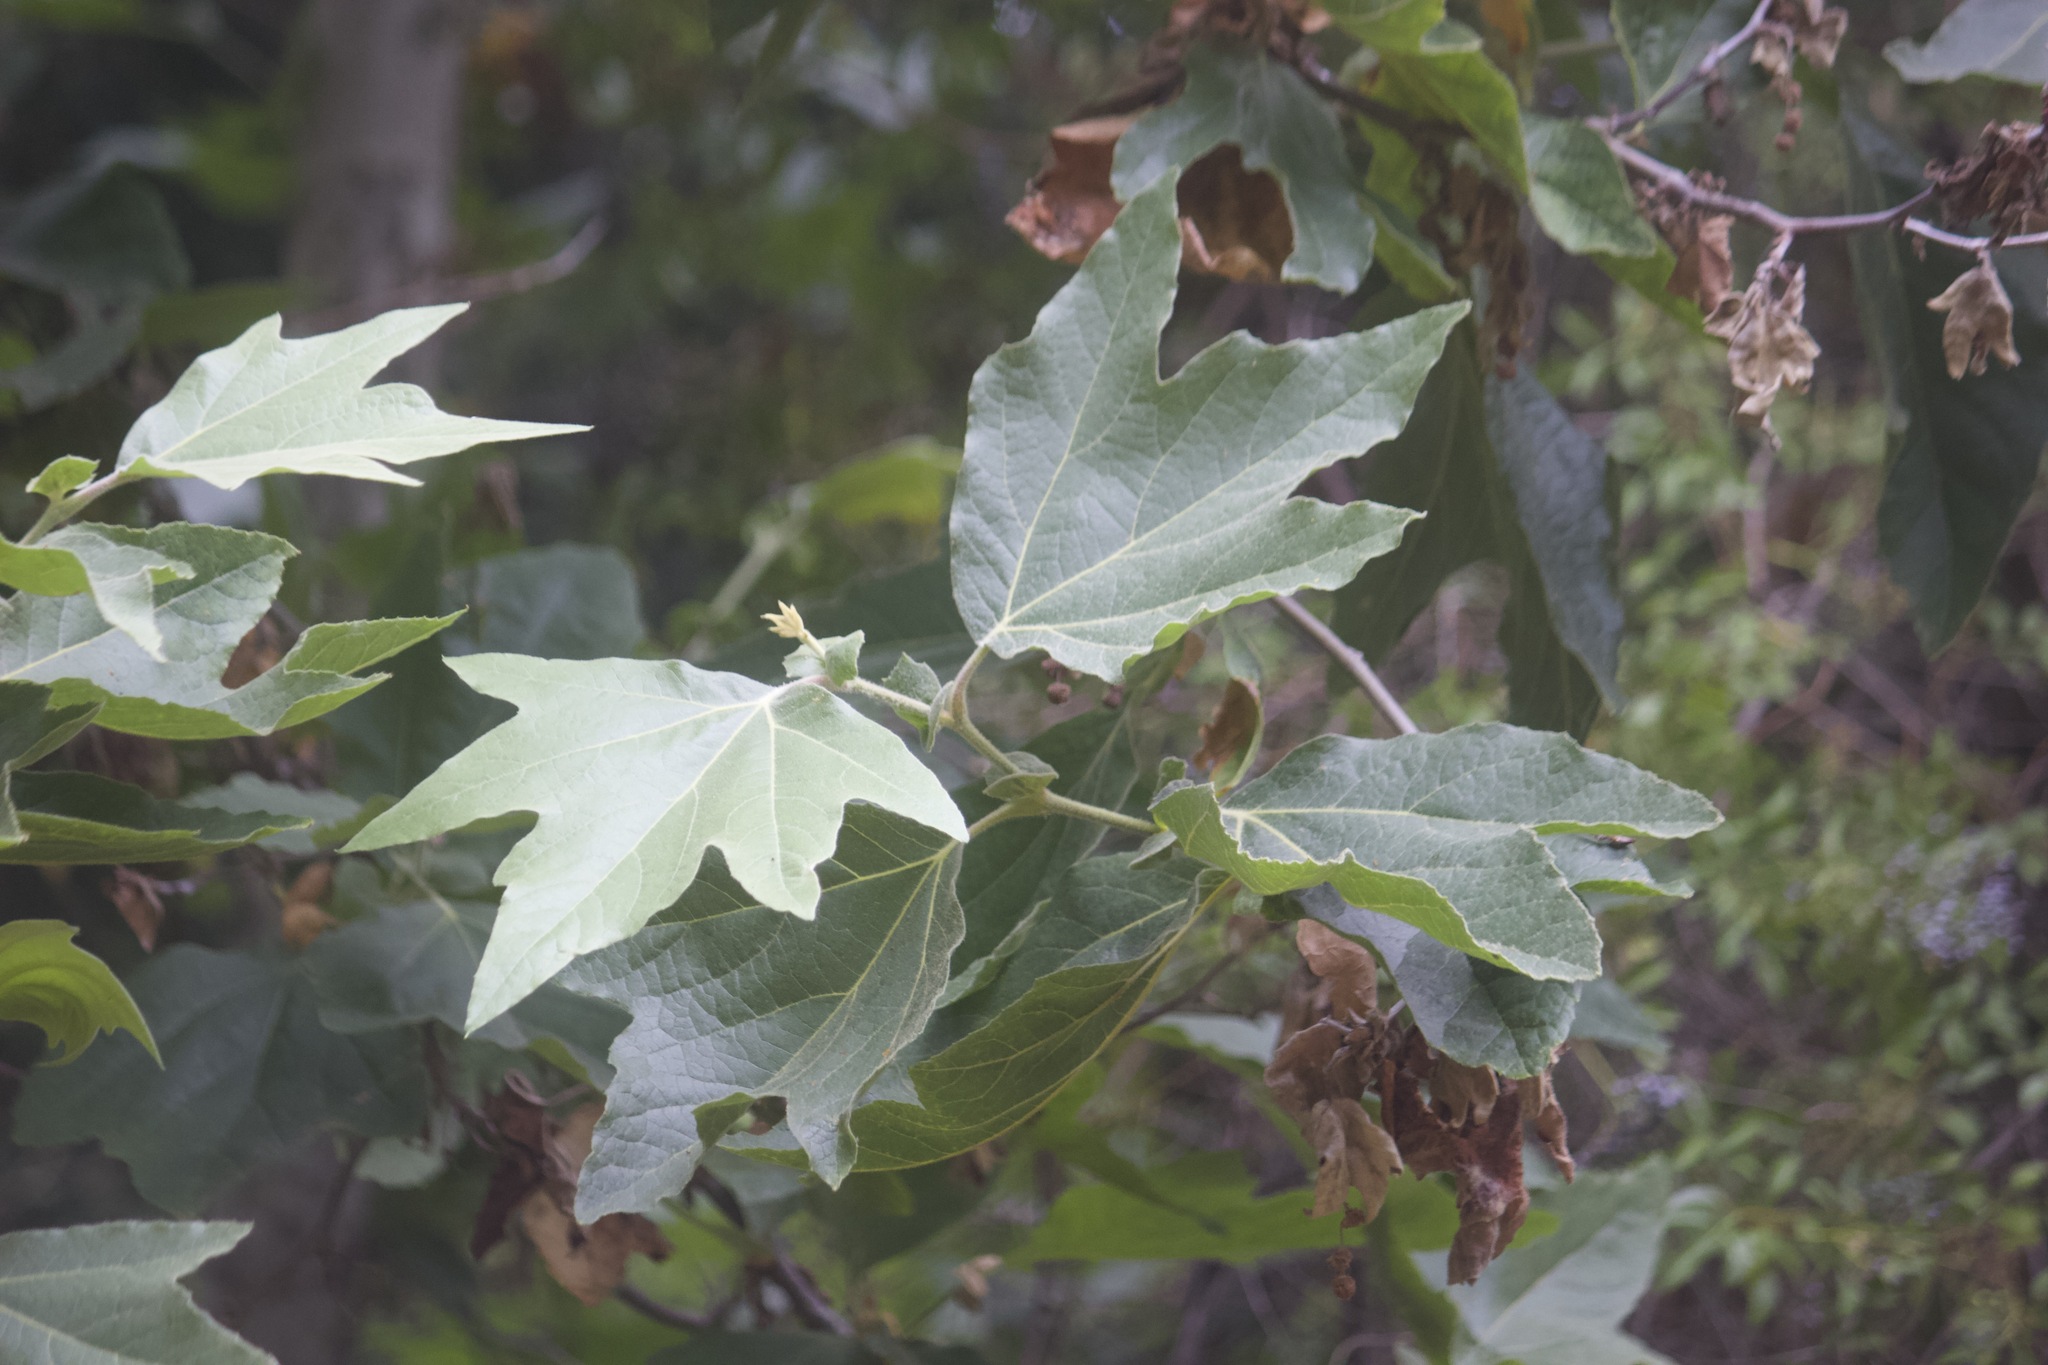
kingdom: Plantae
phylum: Tracheophyta
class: Magnoliopsida
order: Proteales
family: Platanaceae
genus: Platanus
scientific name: Platanus racemosa
